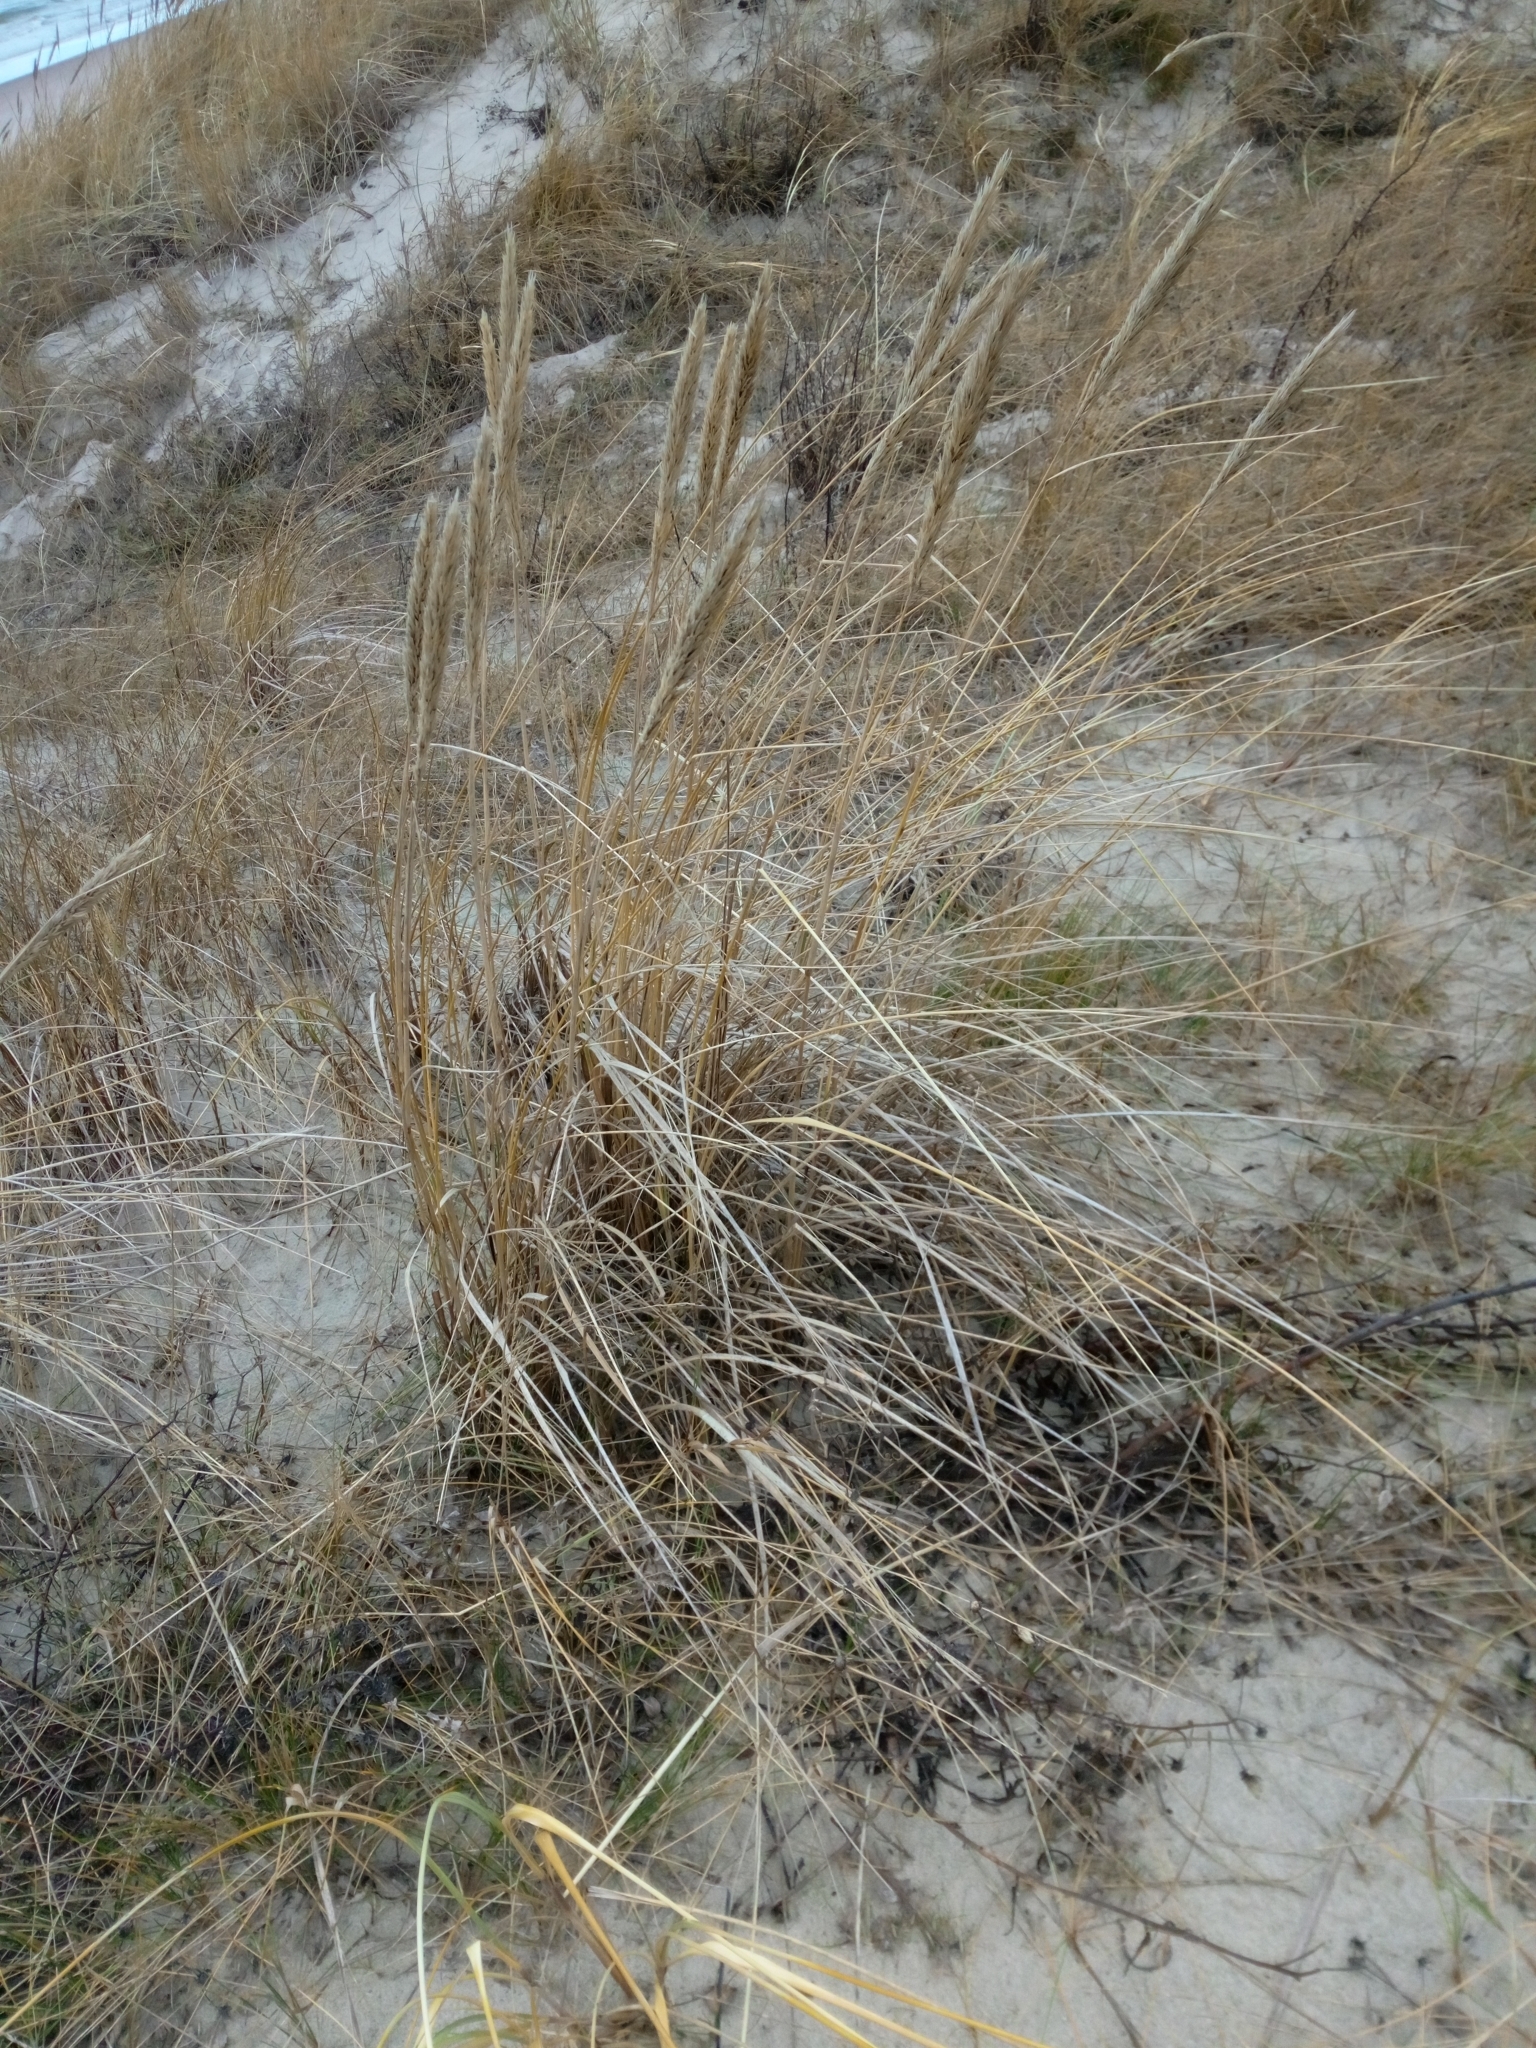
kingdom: Plantae
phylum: Tracheophyta
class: Liliopsida
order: Poales
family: Poaceae
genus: Calamagrostis
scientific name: Calamagrostis arenaria
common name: European beachgrass
